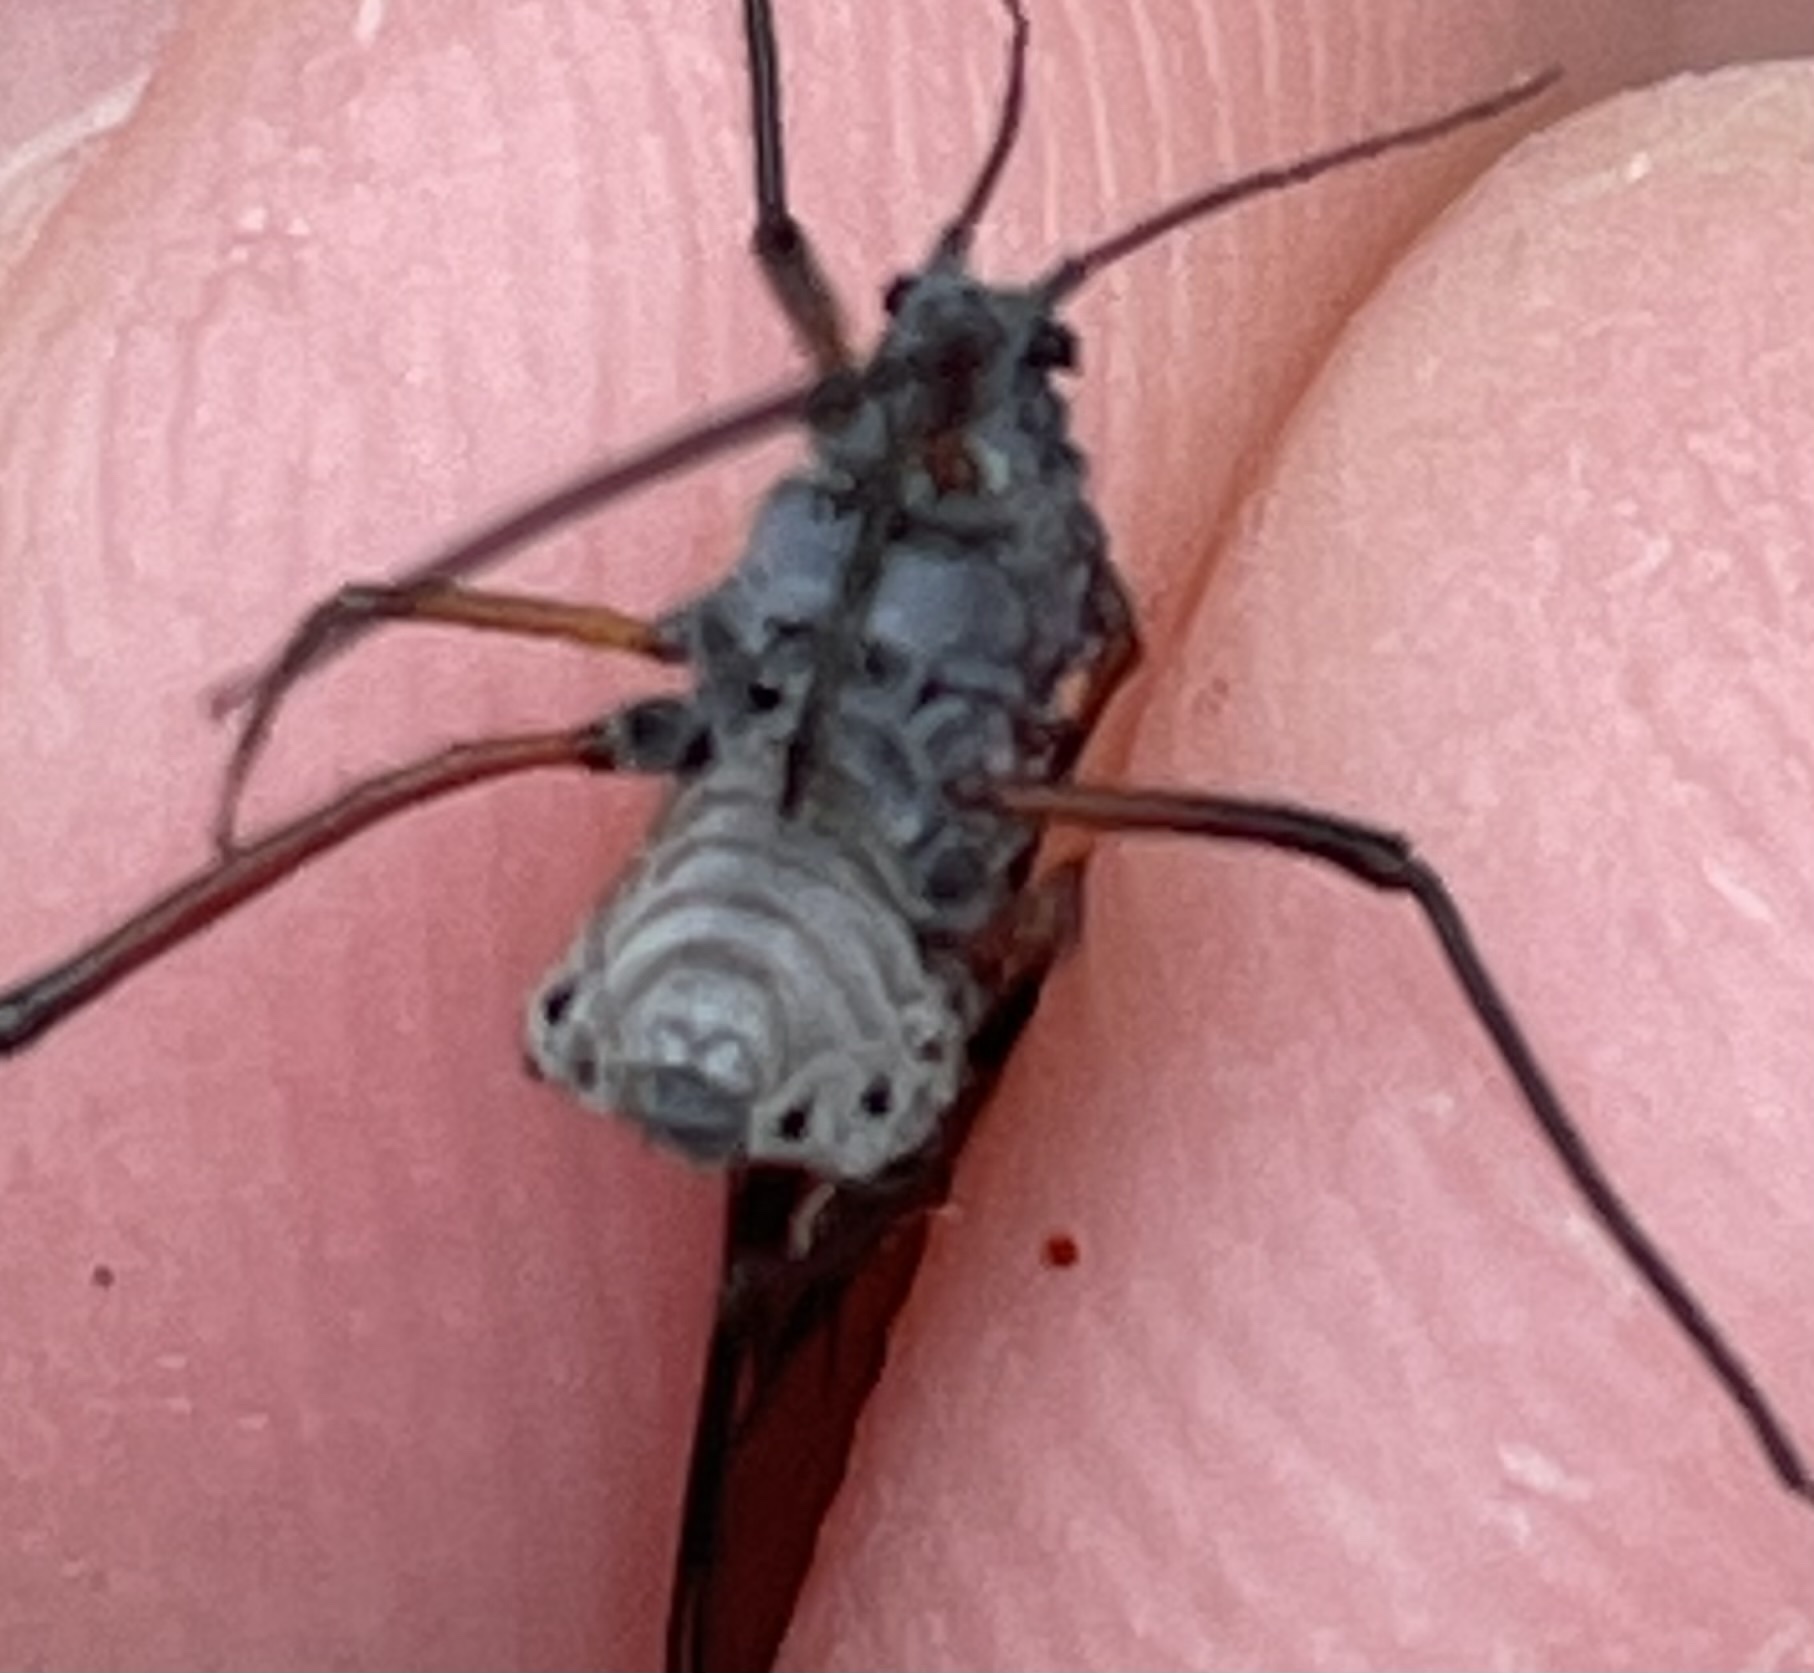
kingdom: Animalia
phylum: Arthropoda
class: Insecta
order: Hemiptera
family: Aphididae
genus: Longistigma
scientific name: Longistigma caryae
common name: Giant bark aphid
